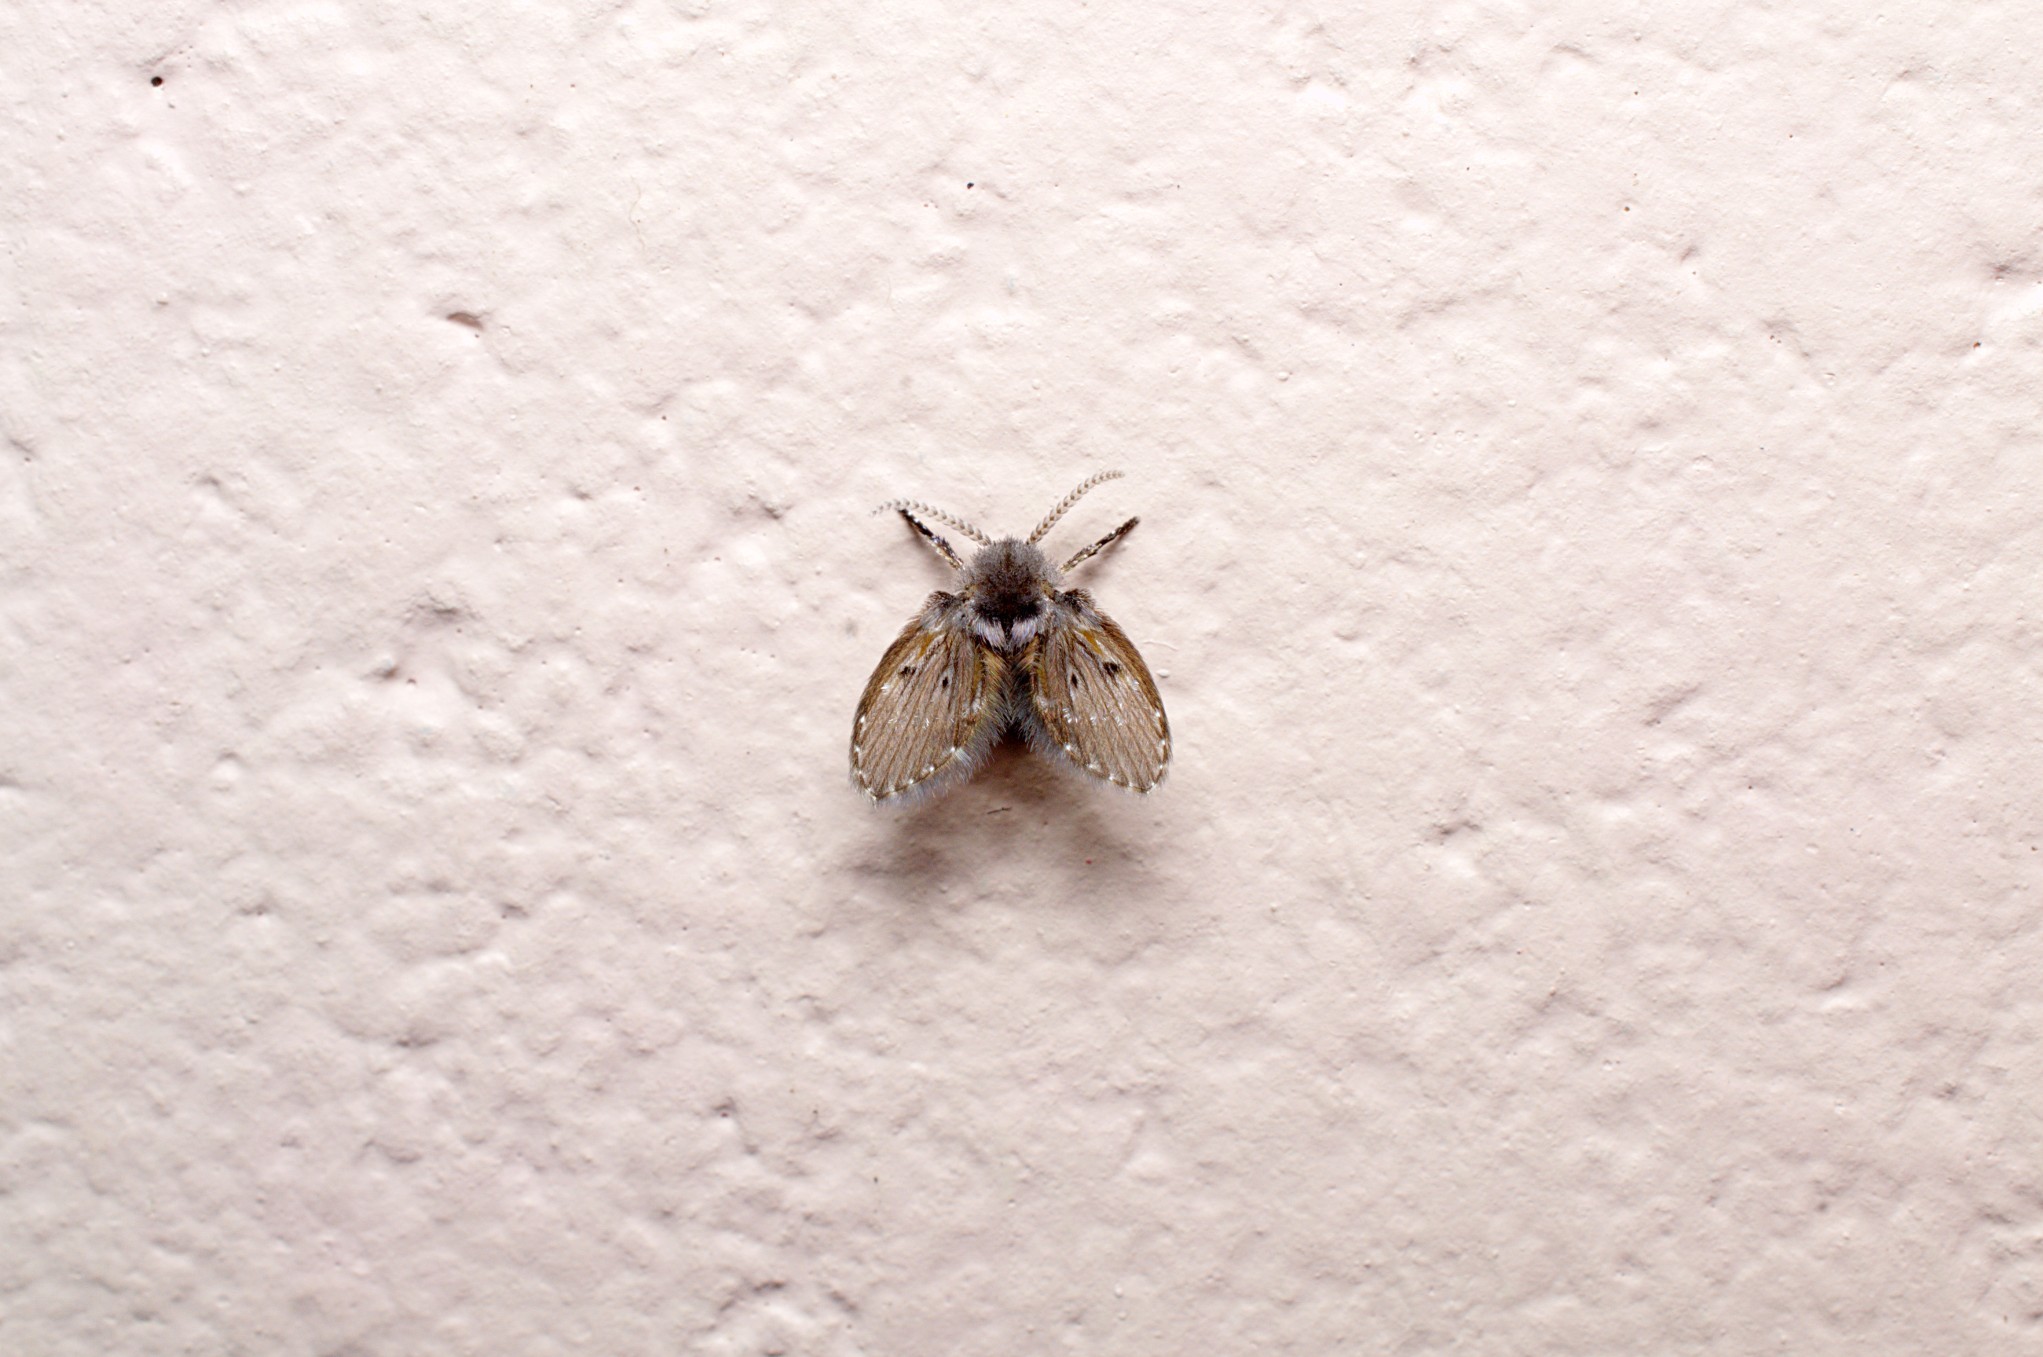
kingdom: Animalia
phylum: Arthropoda
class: Insecta
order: Diptera
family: Psychodidae
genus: Clogmia
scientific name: Clogmia albipunctatus
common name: White-spotted moth fly
